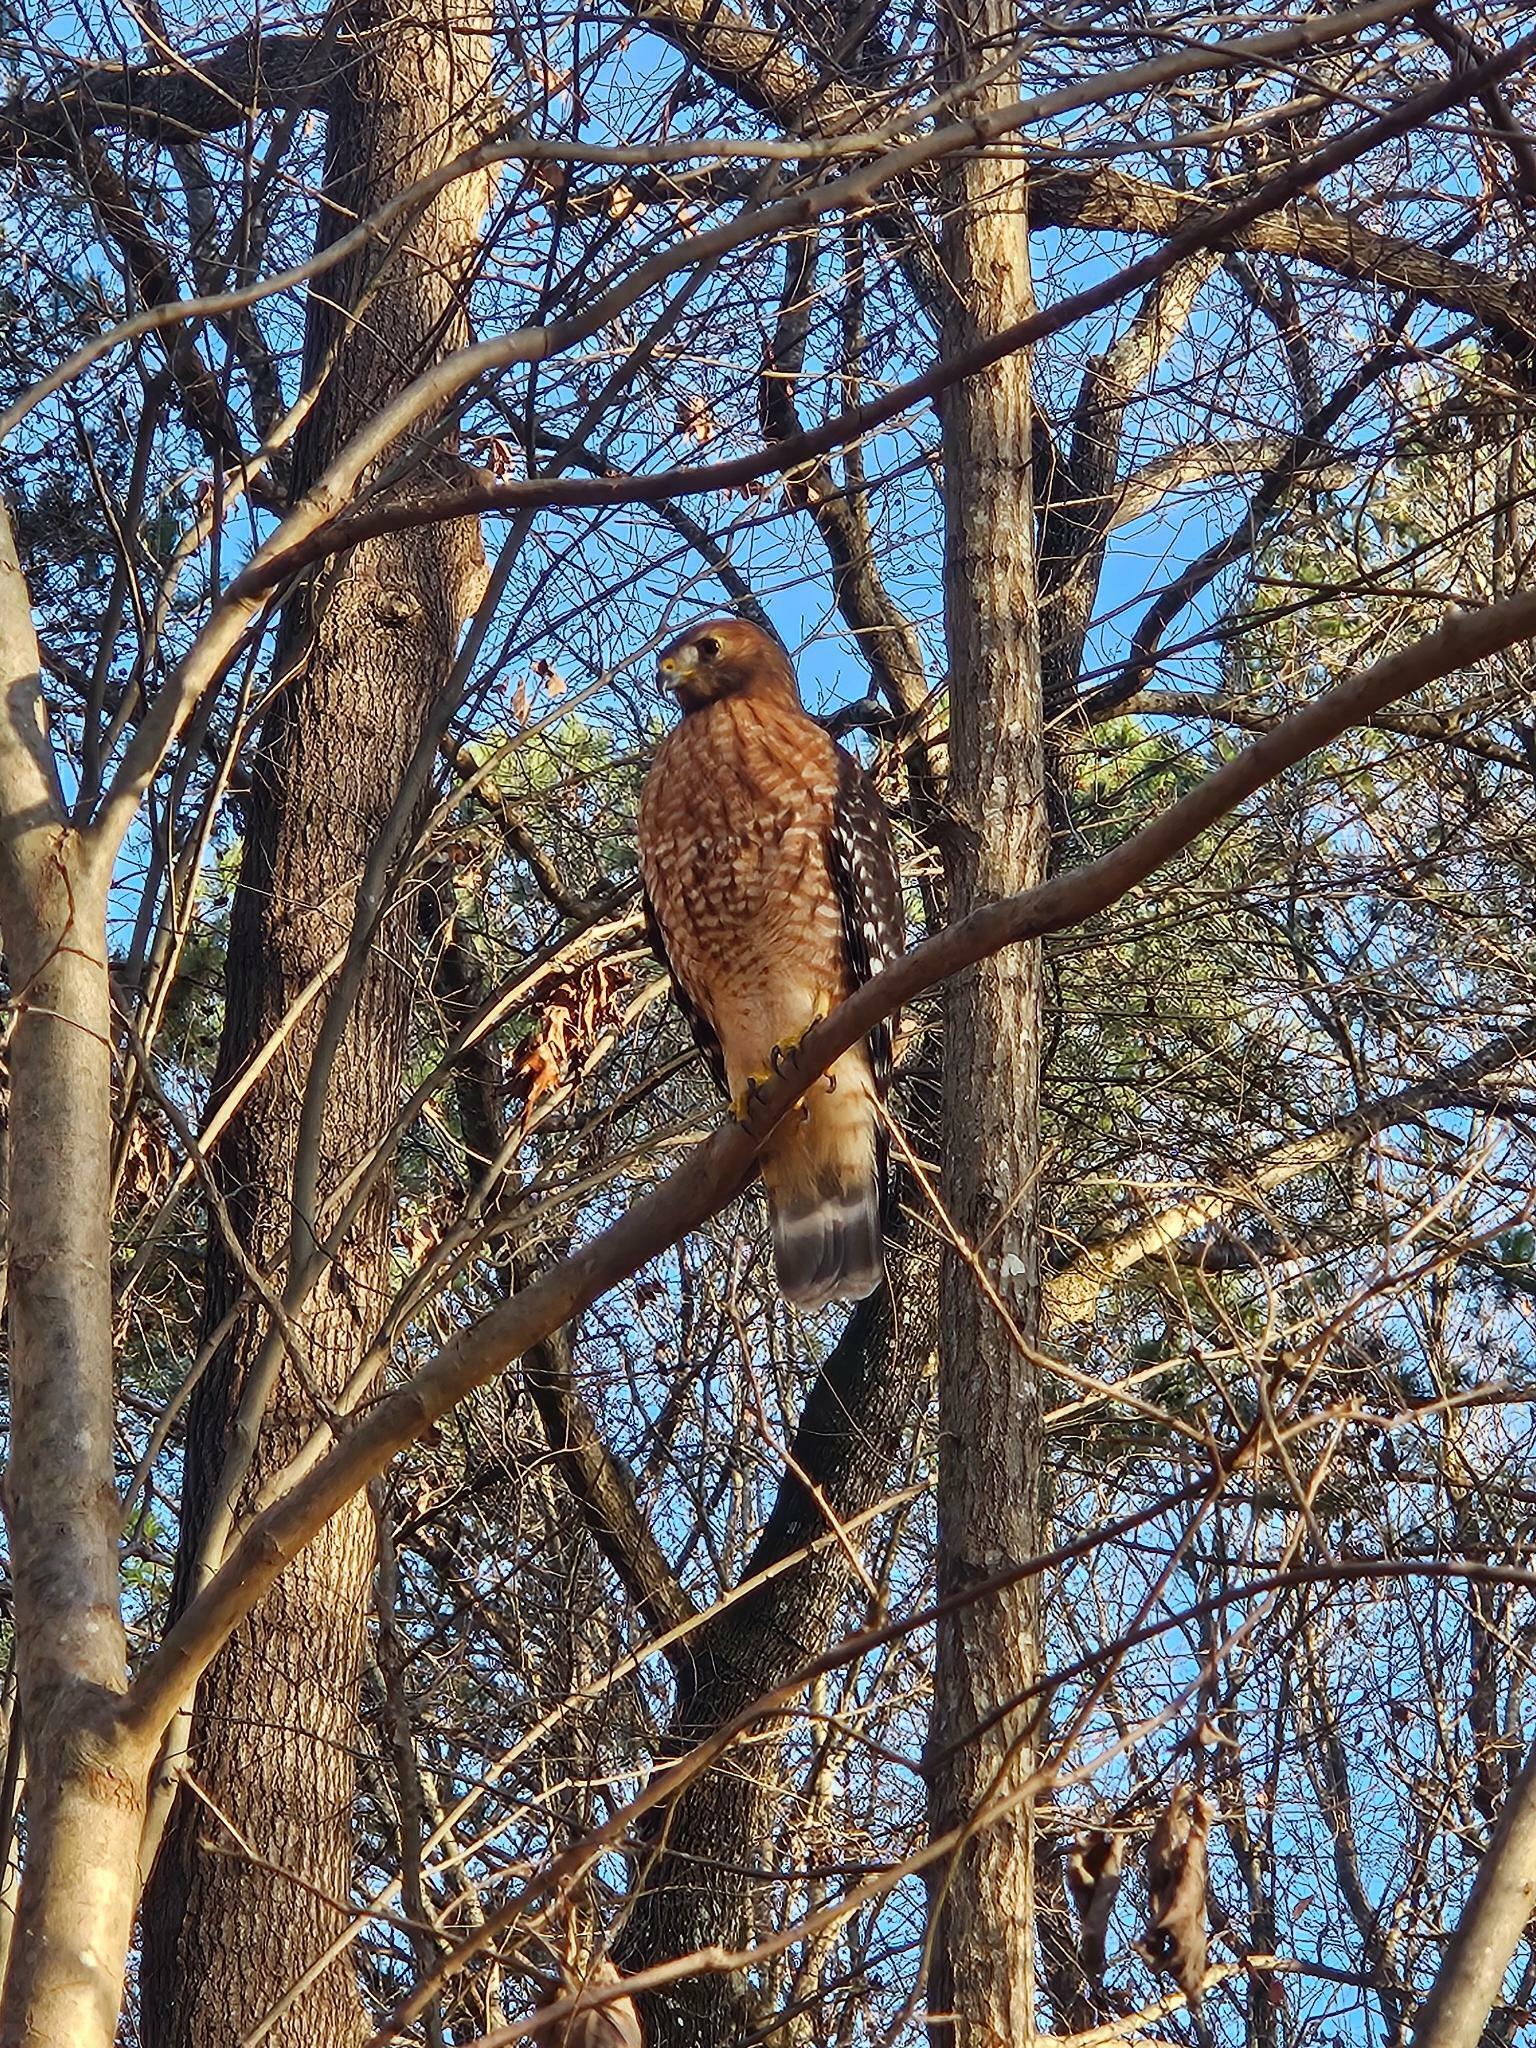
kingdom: Animalia
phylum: Chordata
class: Aves
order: Accipitriformes
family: Accipitridae
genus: Buteo
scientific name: Buteo lineatus
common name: Red-shouldered hawk
